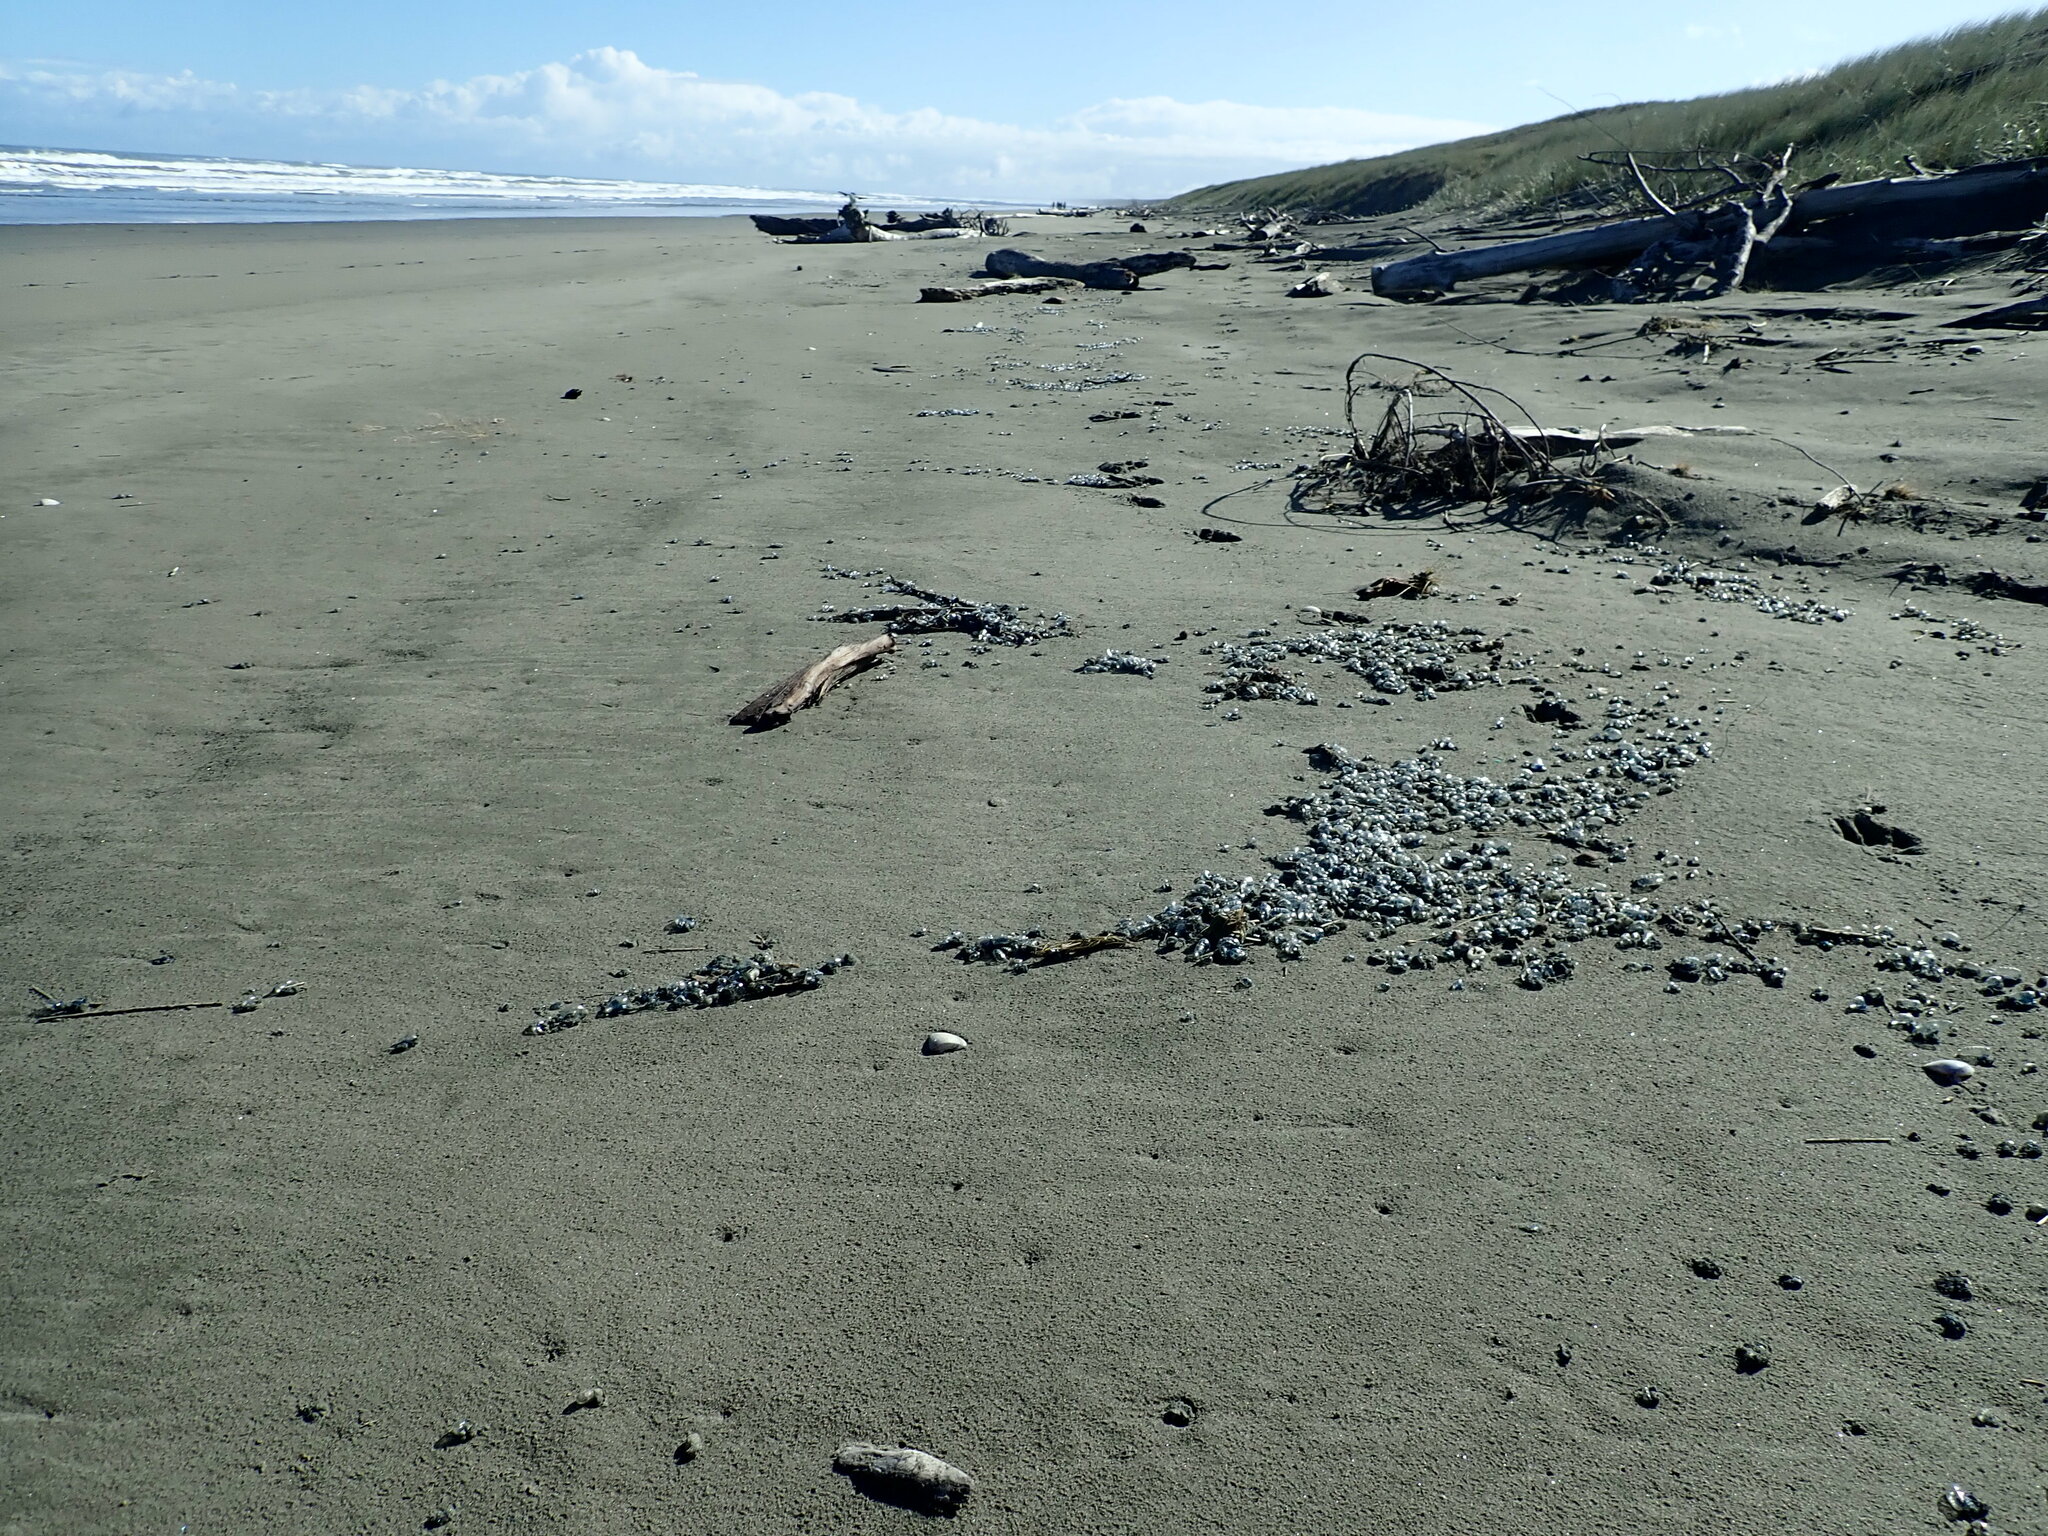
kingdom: Animalia
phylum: Cnidaria
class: Hydrozoa
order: Siphonophorae
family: Physaliidae
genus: Physalia
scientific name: Physalia physalis
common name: Portuguese man-of-war
